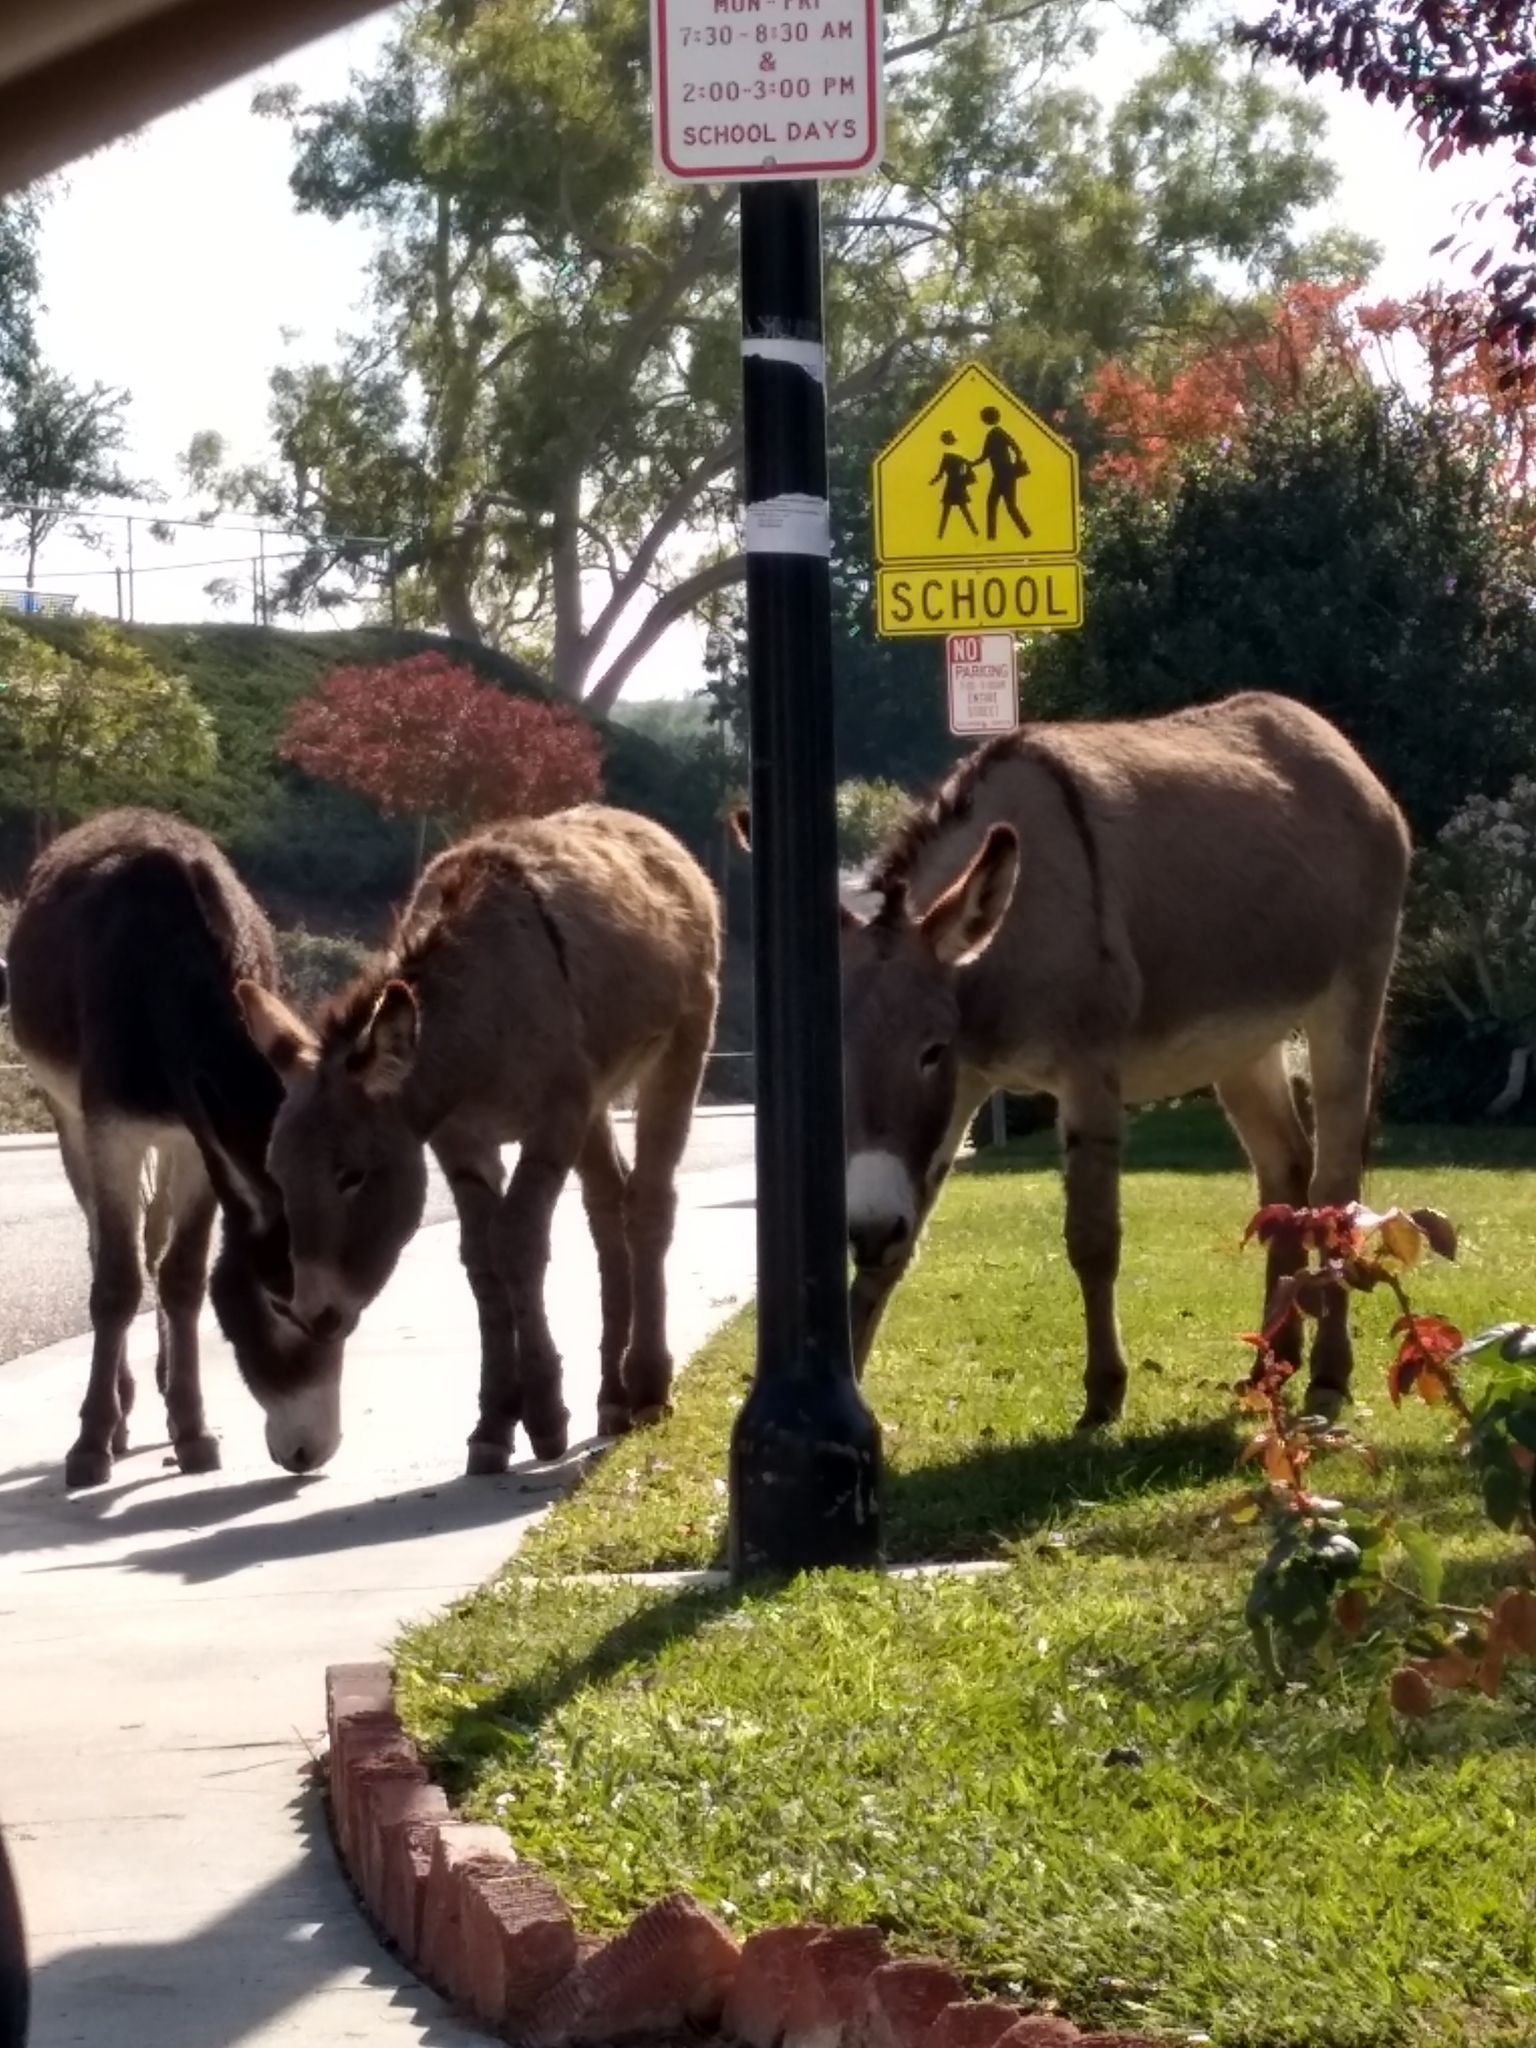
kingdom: Animalia
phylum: Chordata
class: Mammalia
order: Perissodactyla
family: Equidae
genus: Equus
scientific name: Equus asinus
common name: Ass
